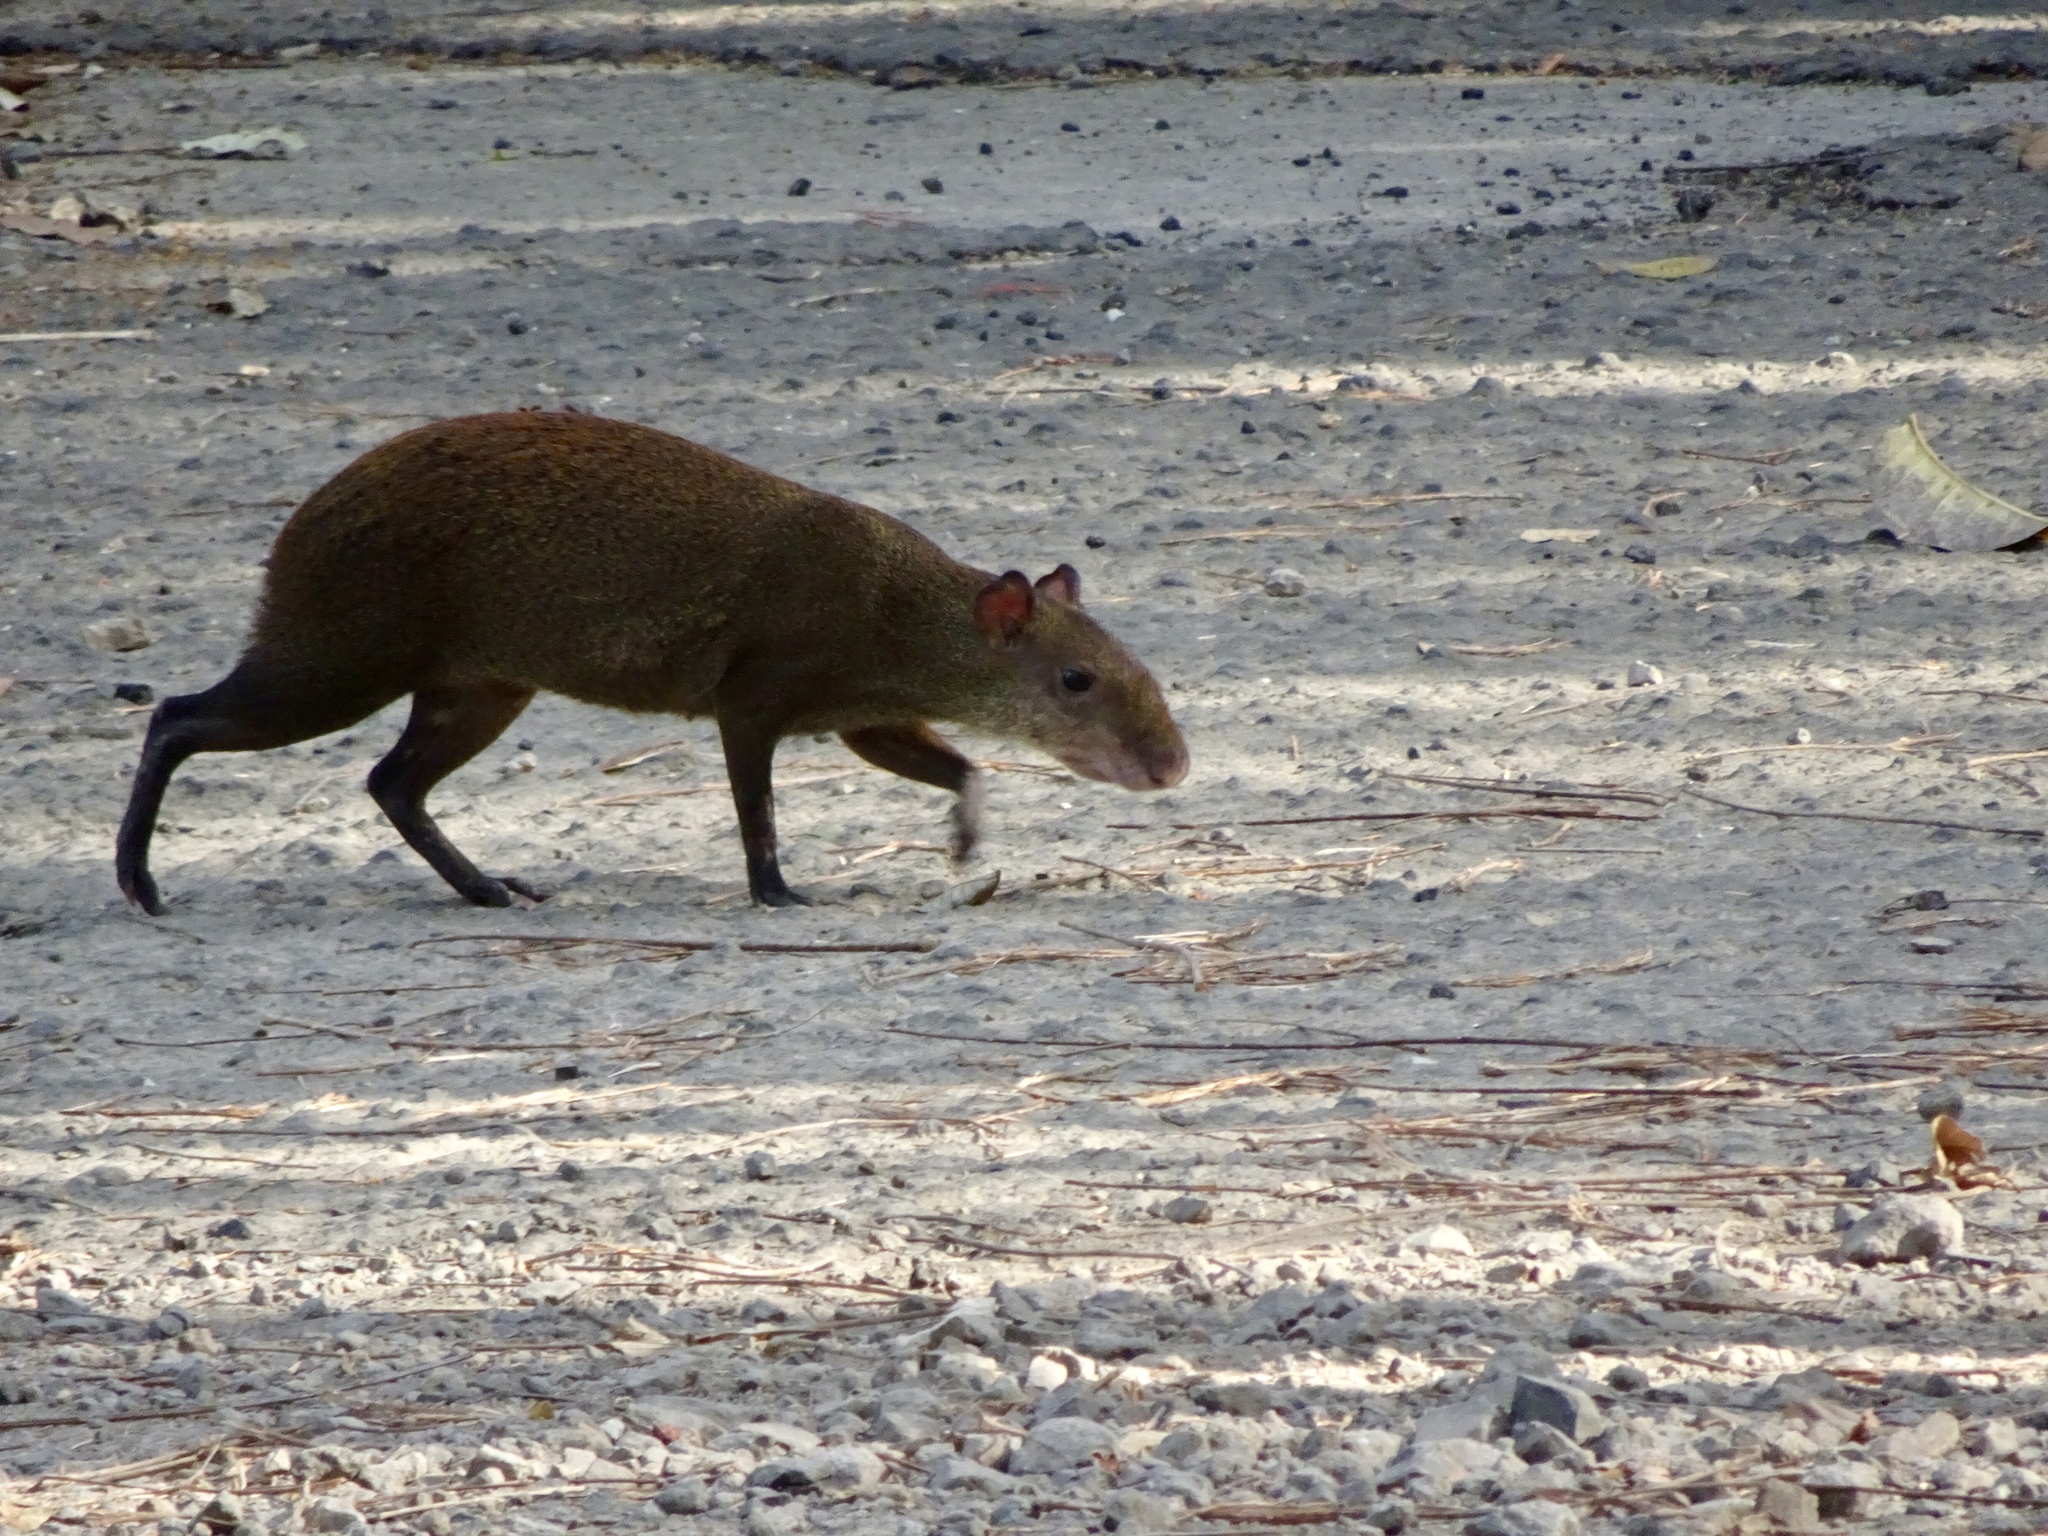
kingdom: Animalia
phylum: Chordata
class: Mammalia
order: Rodentia
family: Dasyproctidae
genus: Dasyprocta
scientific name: Dasyprocta punctata
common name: Central american agouti
